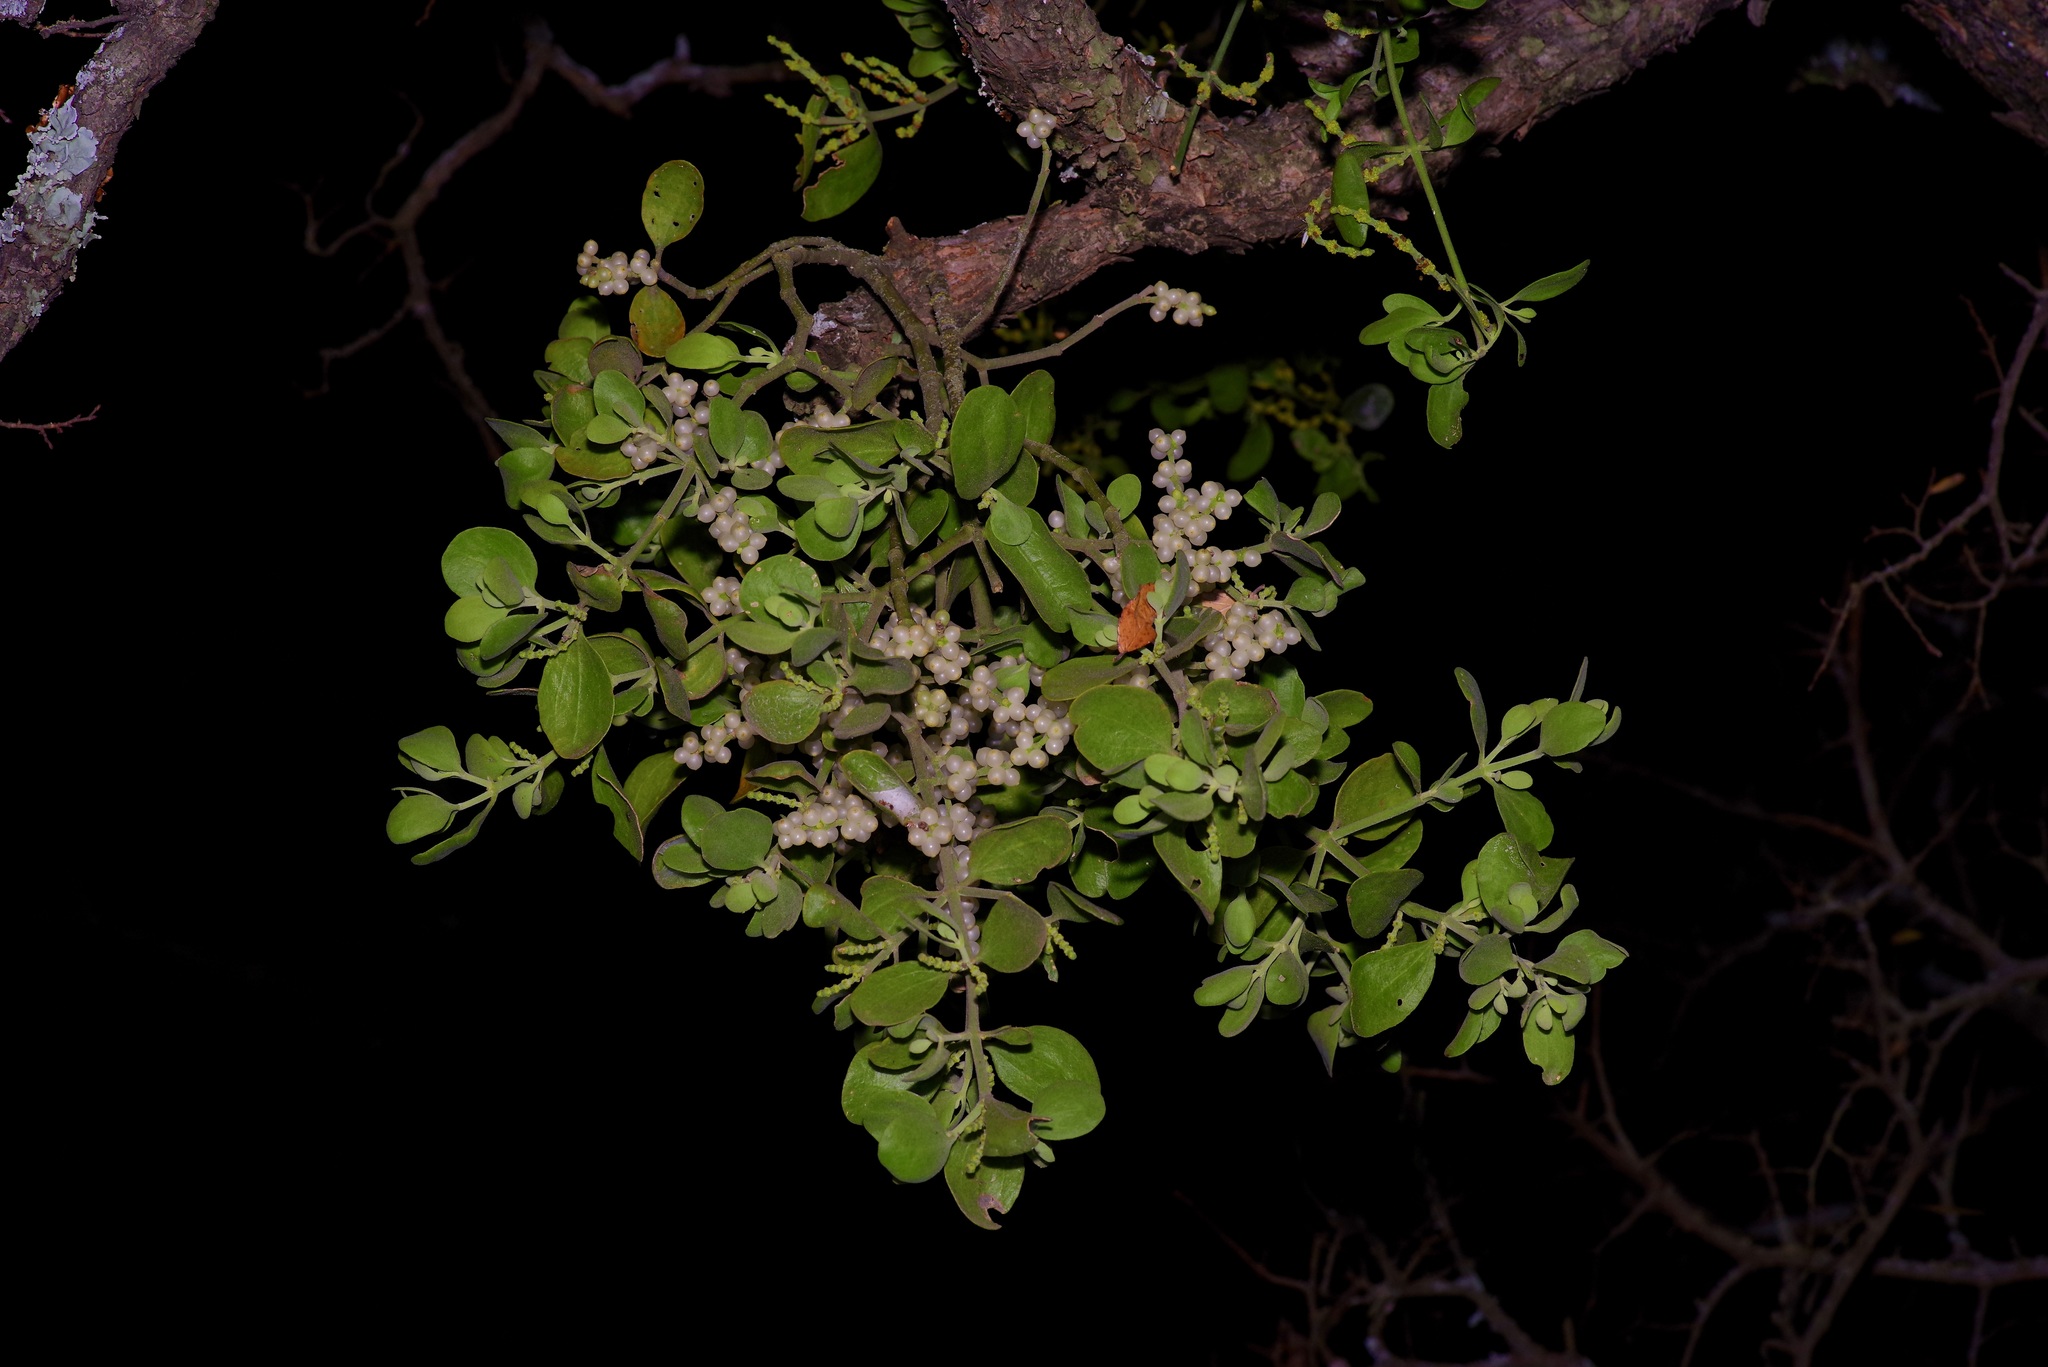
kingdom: Plantae
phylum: Tracheophyta
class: Magnoliopsida
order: Santalales
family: Viscaceae
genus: Phoradendron
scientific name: Phoradendron leucarpum
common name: Pacific mistletoe
